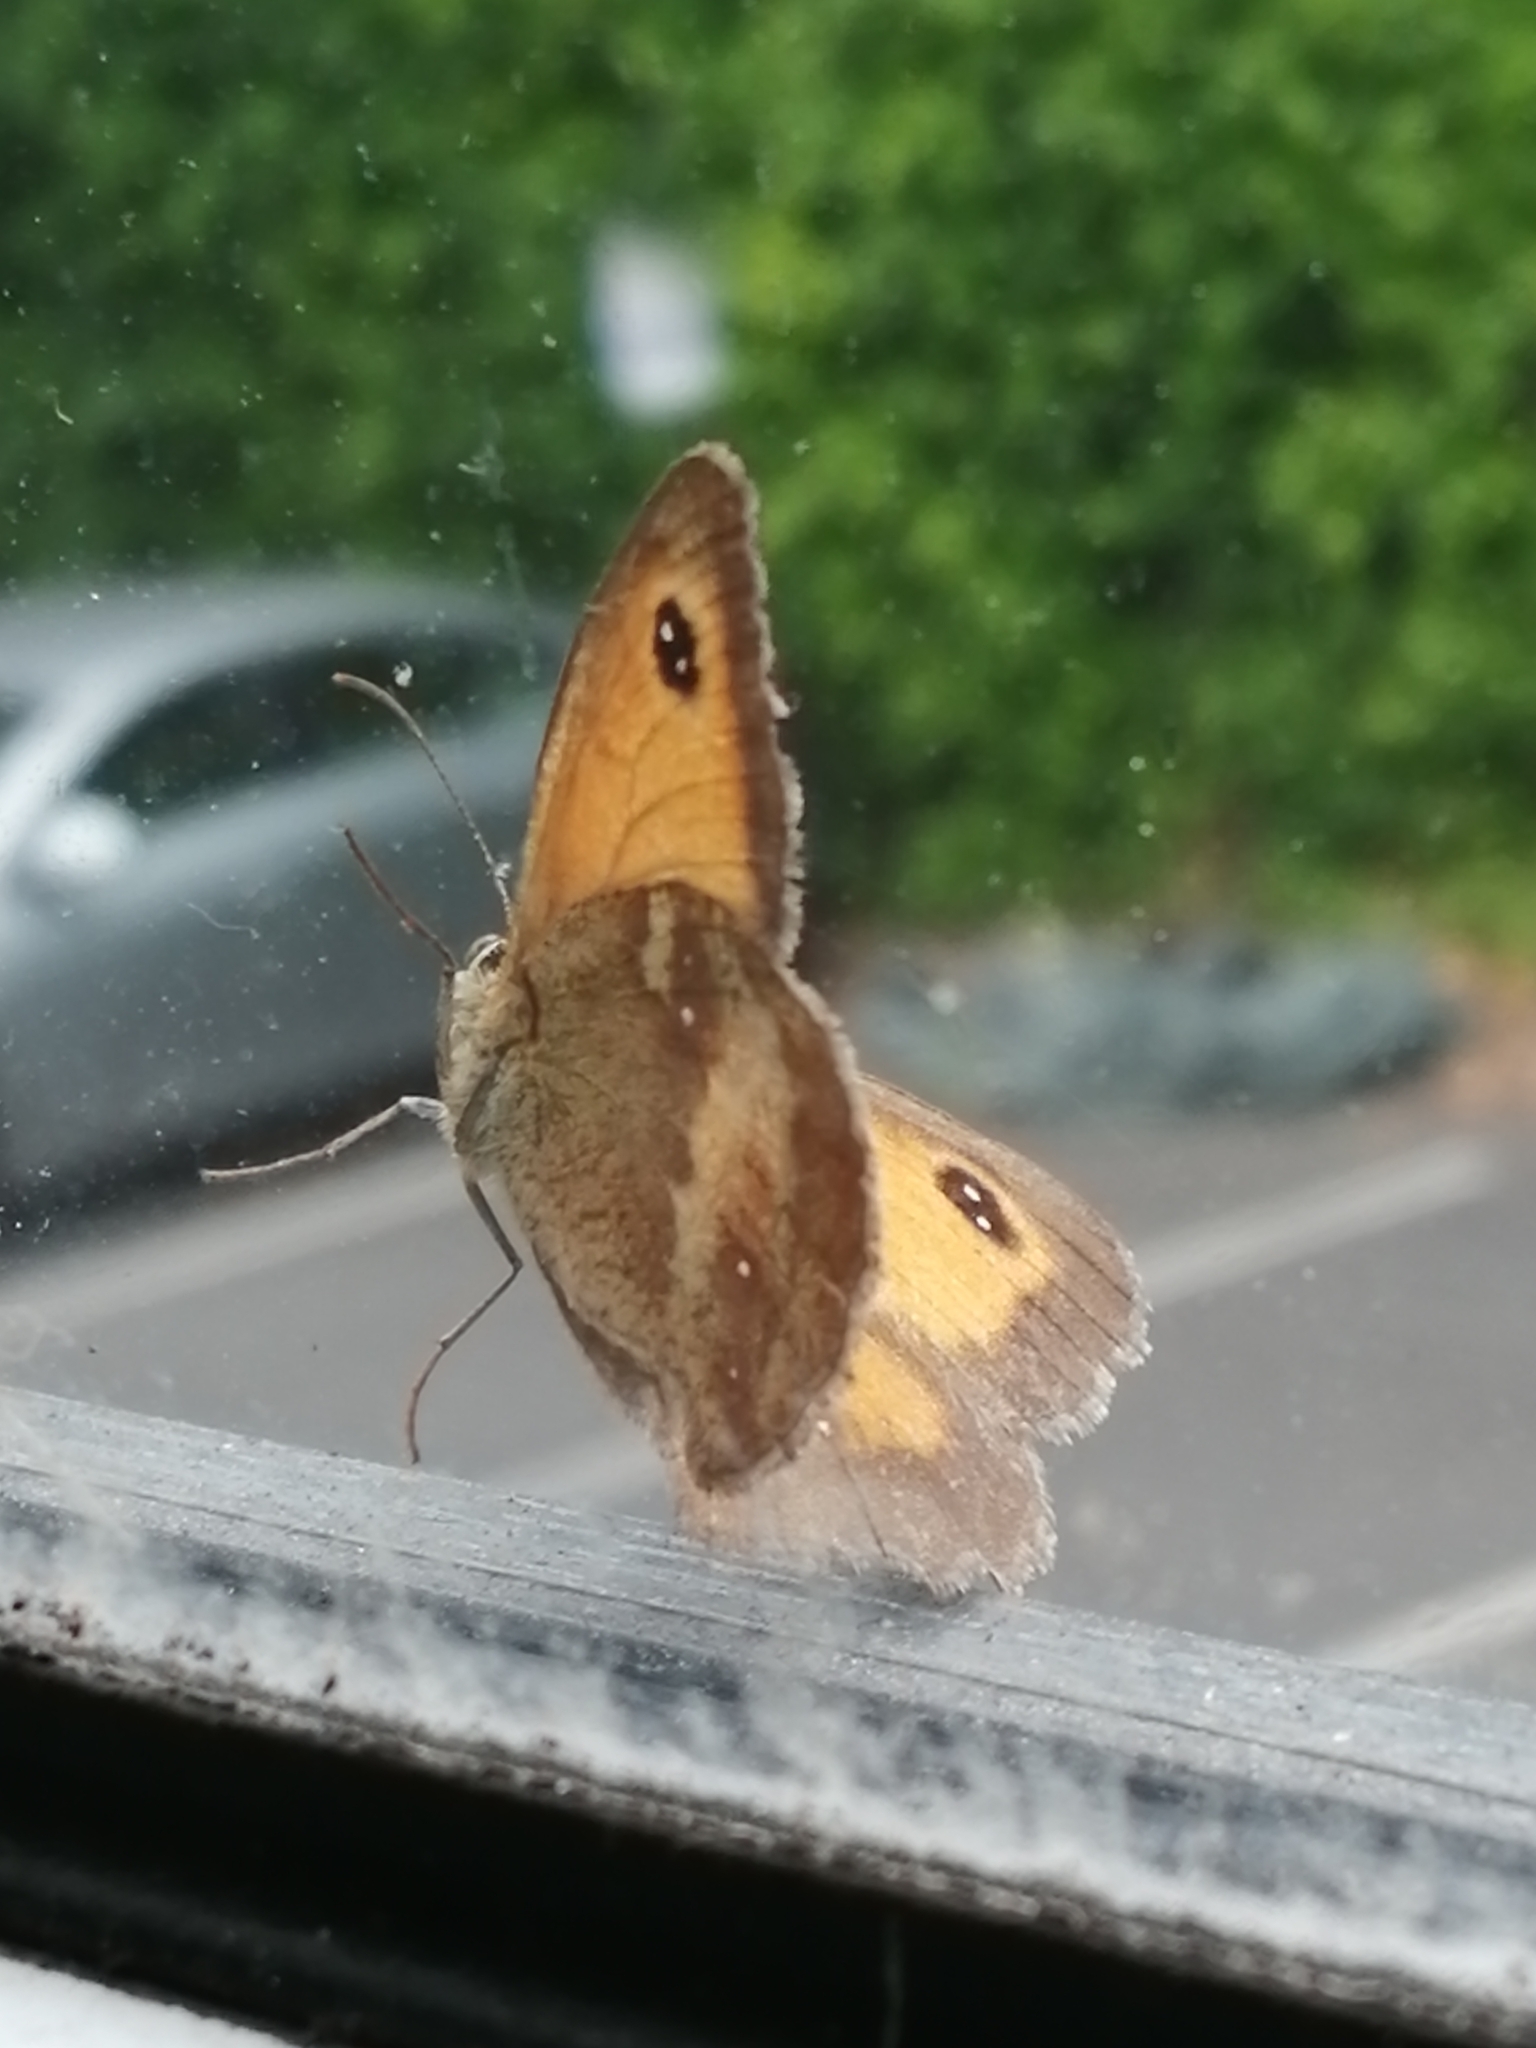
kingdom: Animalia
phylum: Arthropoda
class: Insecta
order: Lepidoptera
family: Nymphalidae
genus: Pyronia
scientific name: Pyronia tithonus
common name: Gatekeeper
